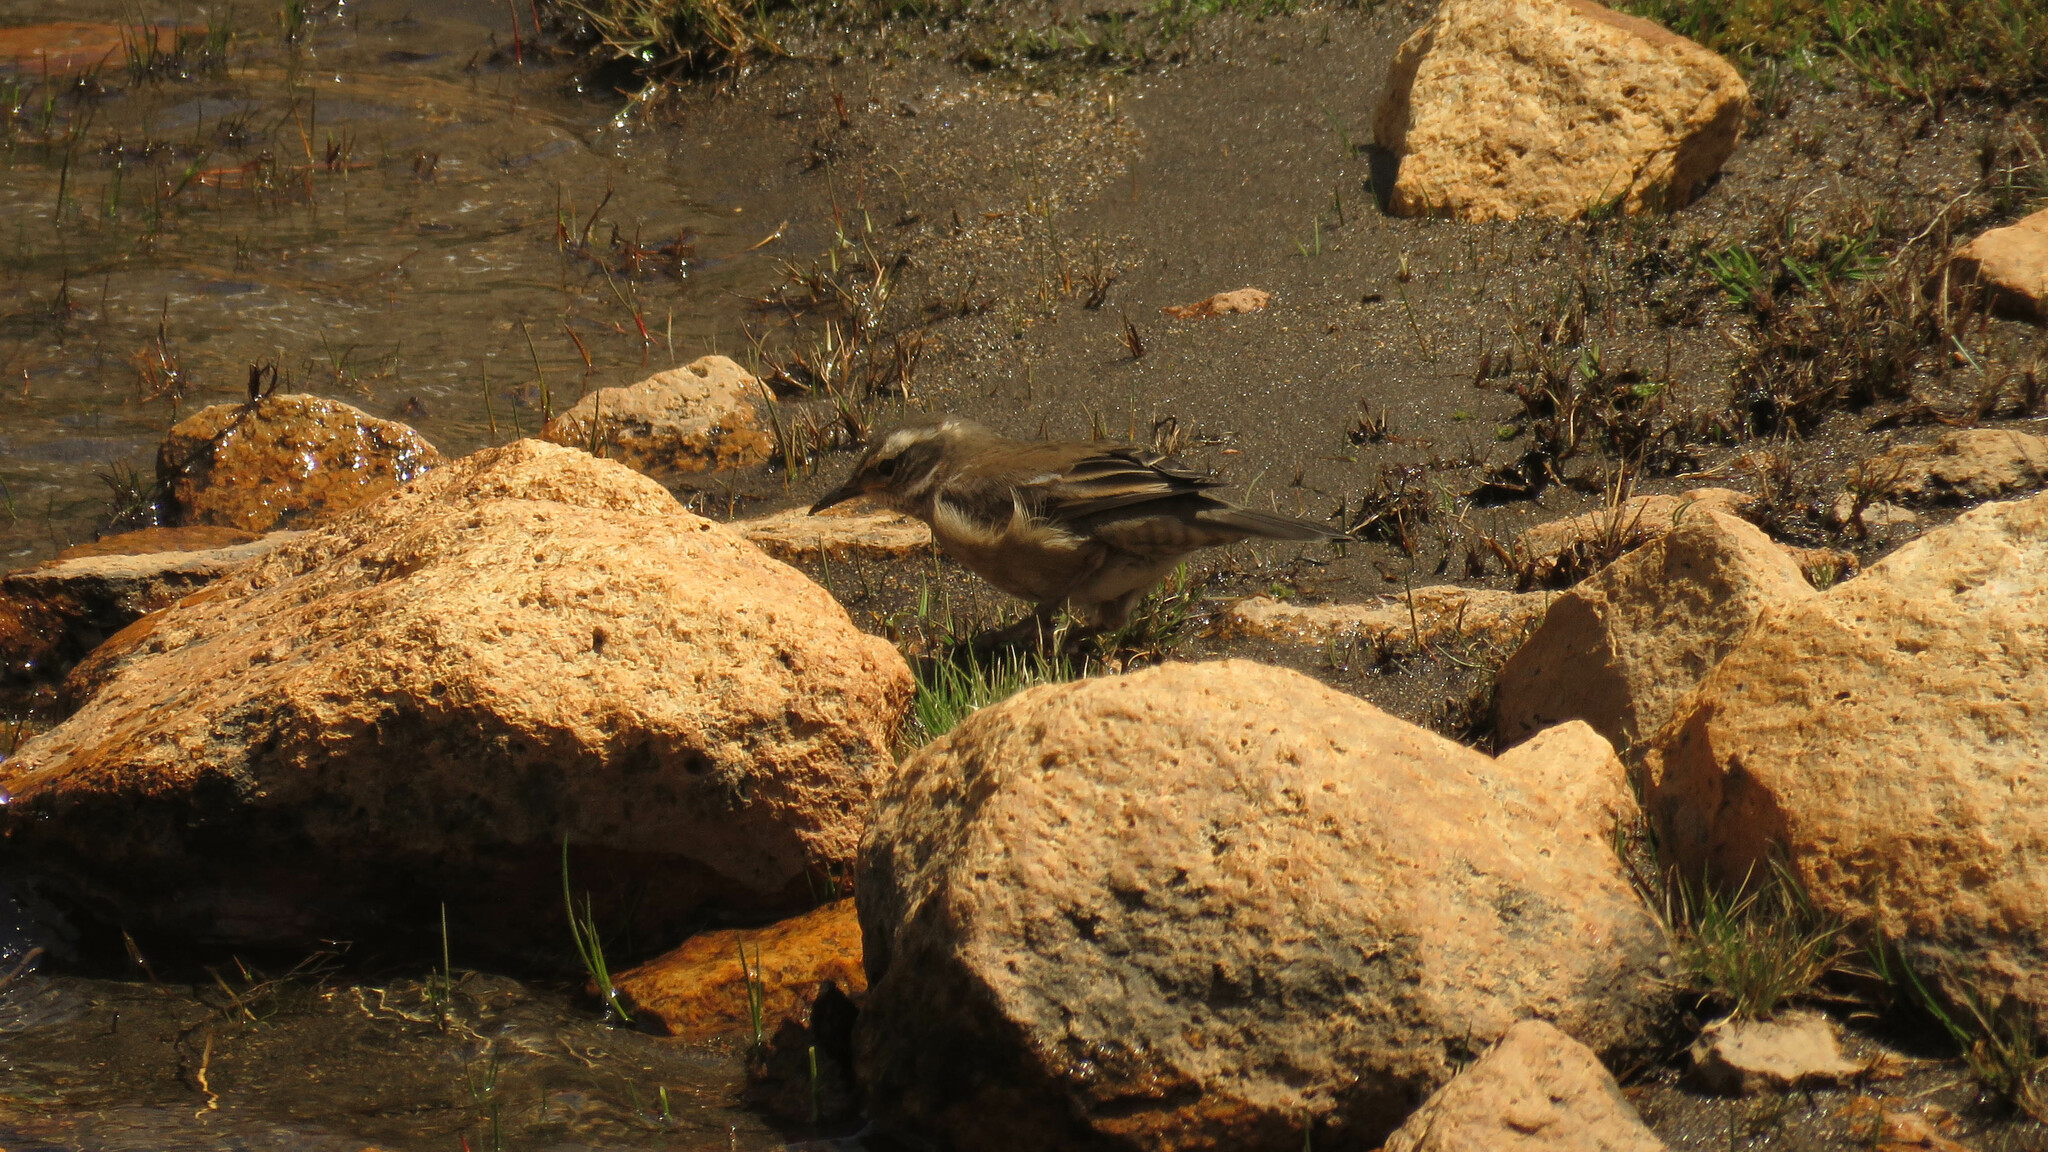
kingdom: Animalia
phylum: Chordata
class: Aves
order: Passeriformes
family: Furnariidae
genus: Cinclodes
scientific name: Cinclodes fuscus
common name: Buff-winged cinclodes
